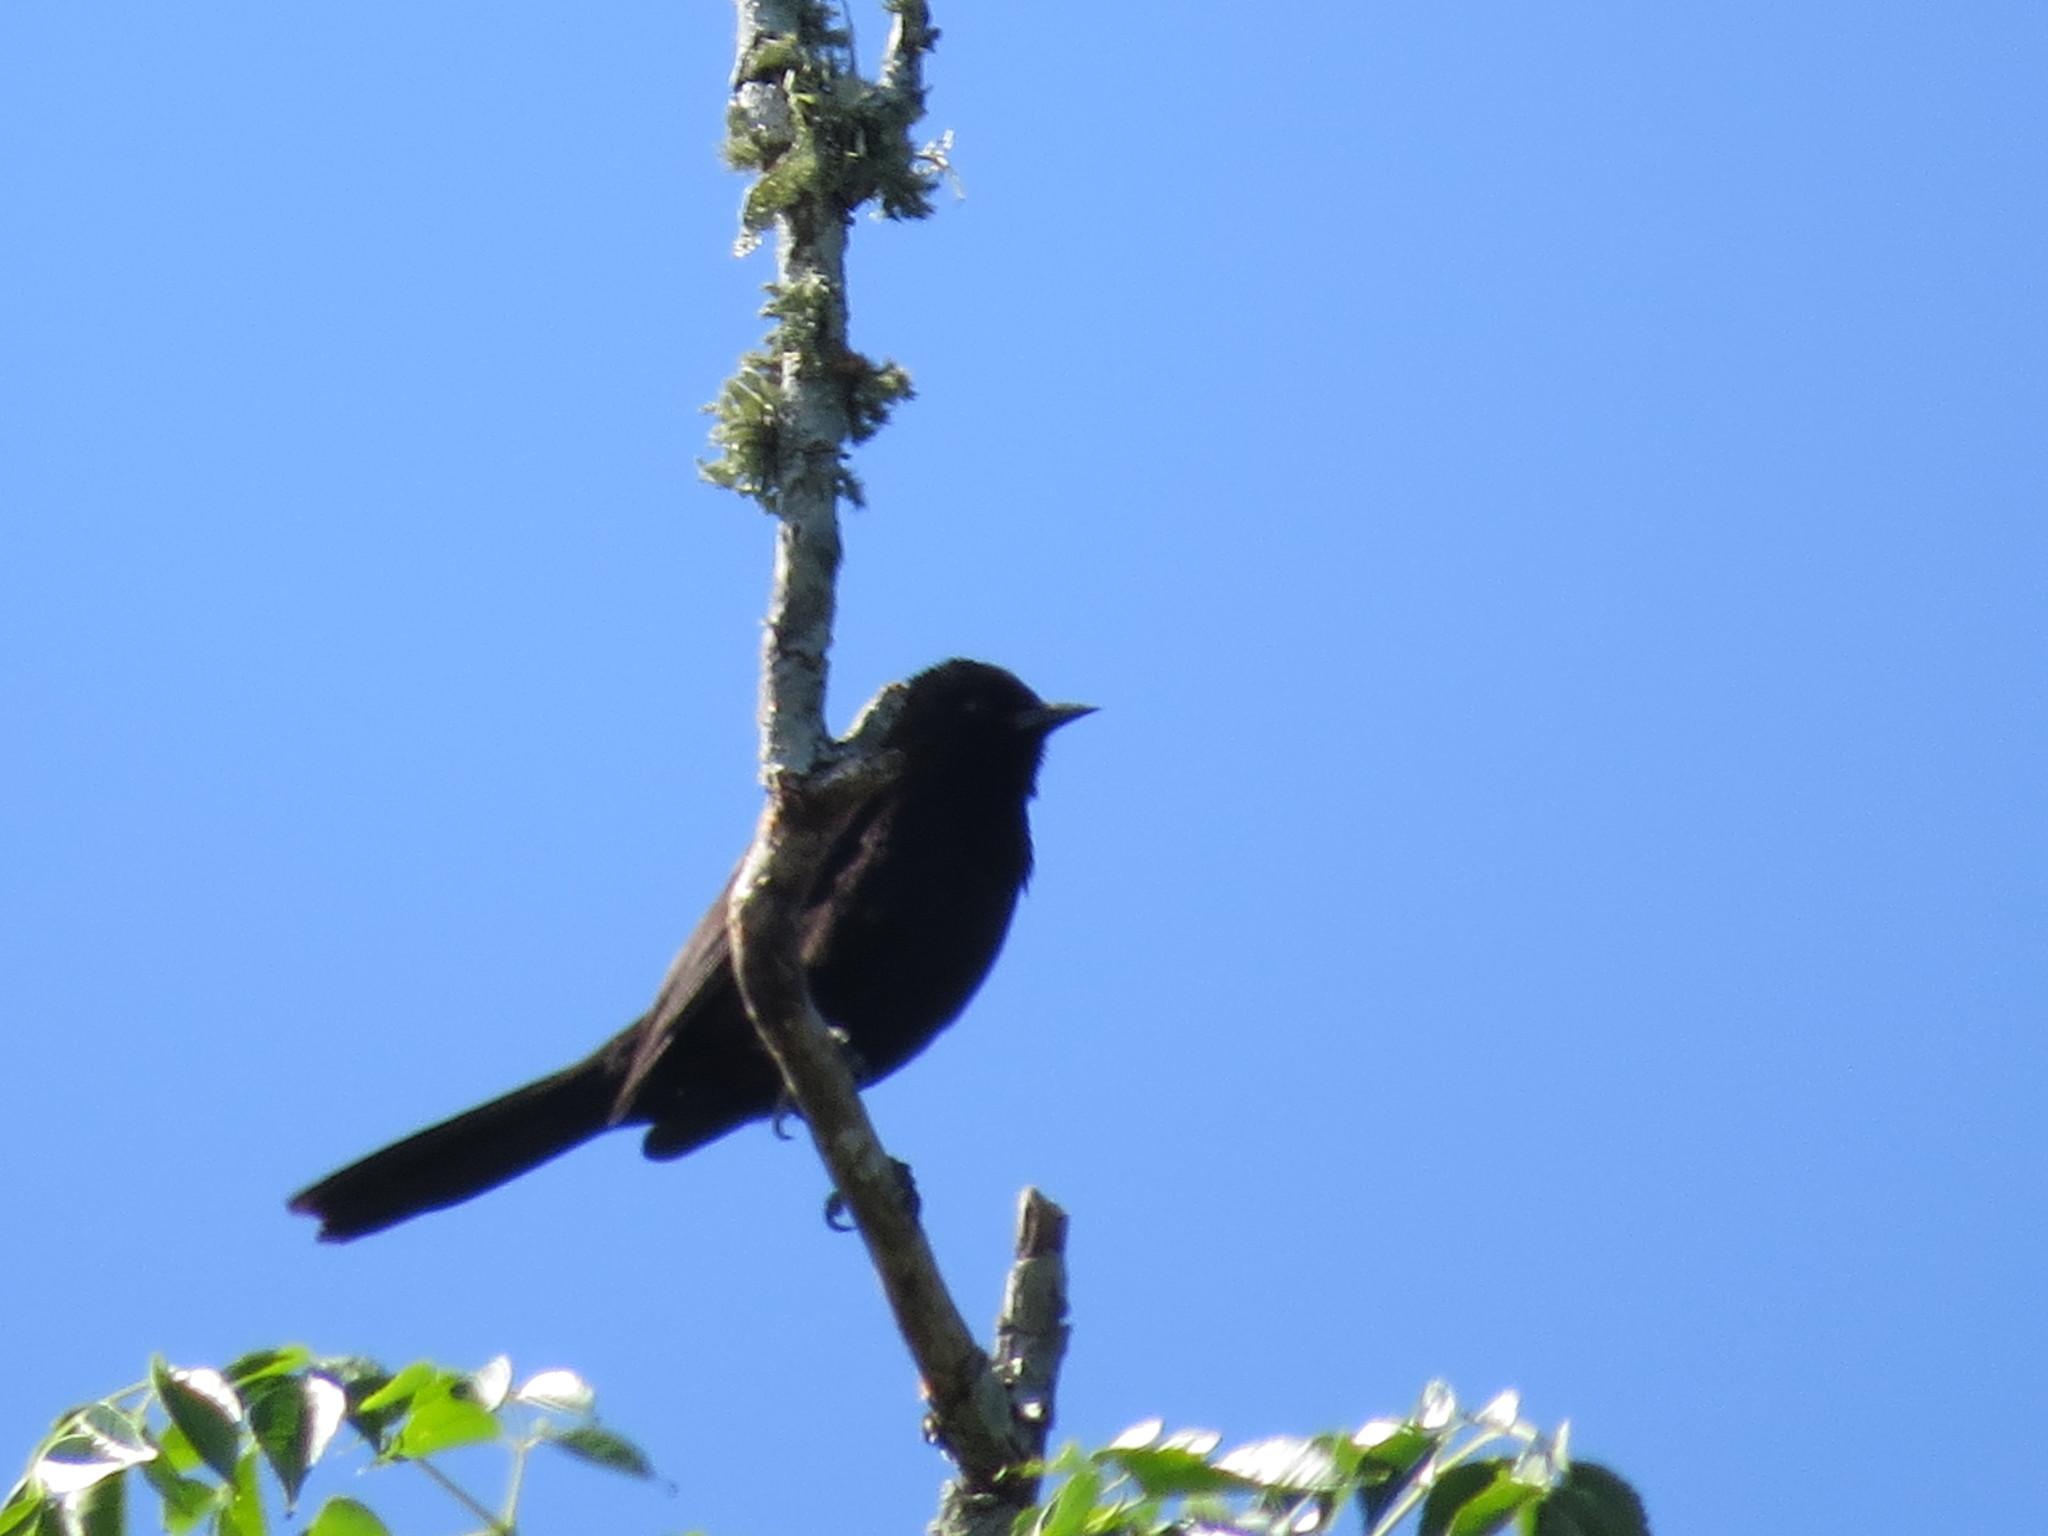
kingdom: Animalia
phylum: Chordata
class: Aves
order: Passeriformes
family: Icteridae
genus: Icterus
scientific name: Icterus cayanensis
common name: Epaulet oriole
